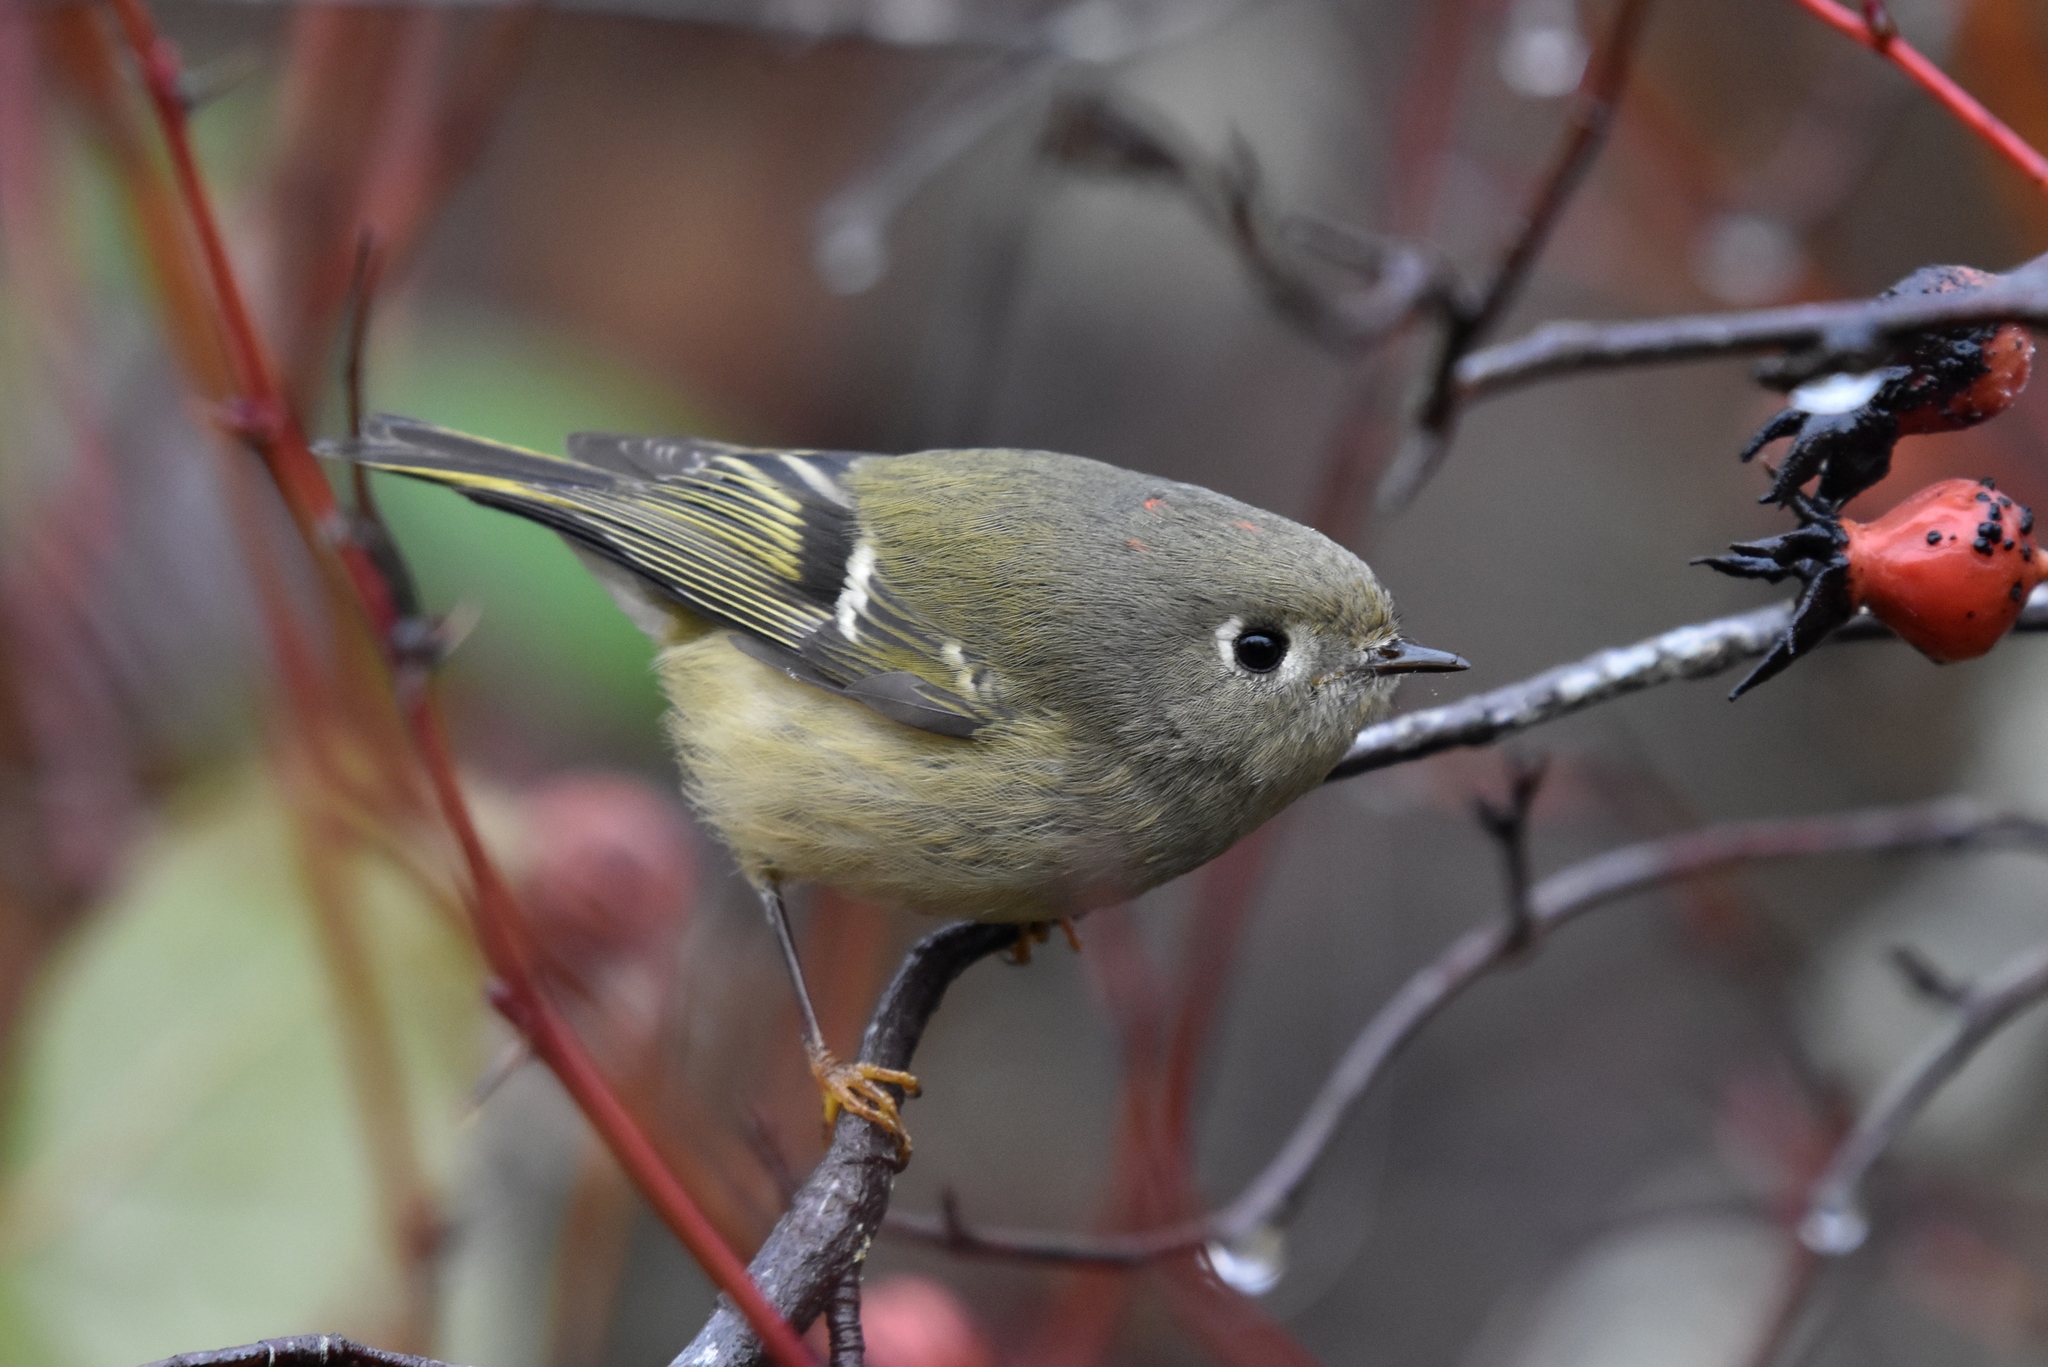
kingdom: Animalia
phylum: Chordata
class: Aves
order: Passeriformes
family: Regulidae
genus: Regulus
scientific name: Regulus calendula
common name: Ruby-crowned kinglet
